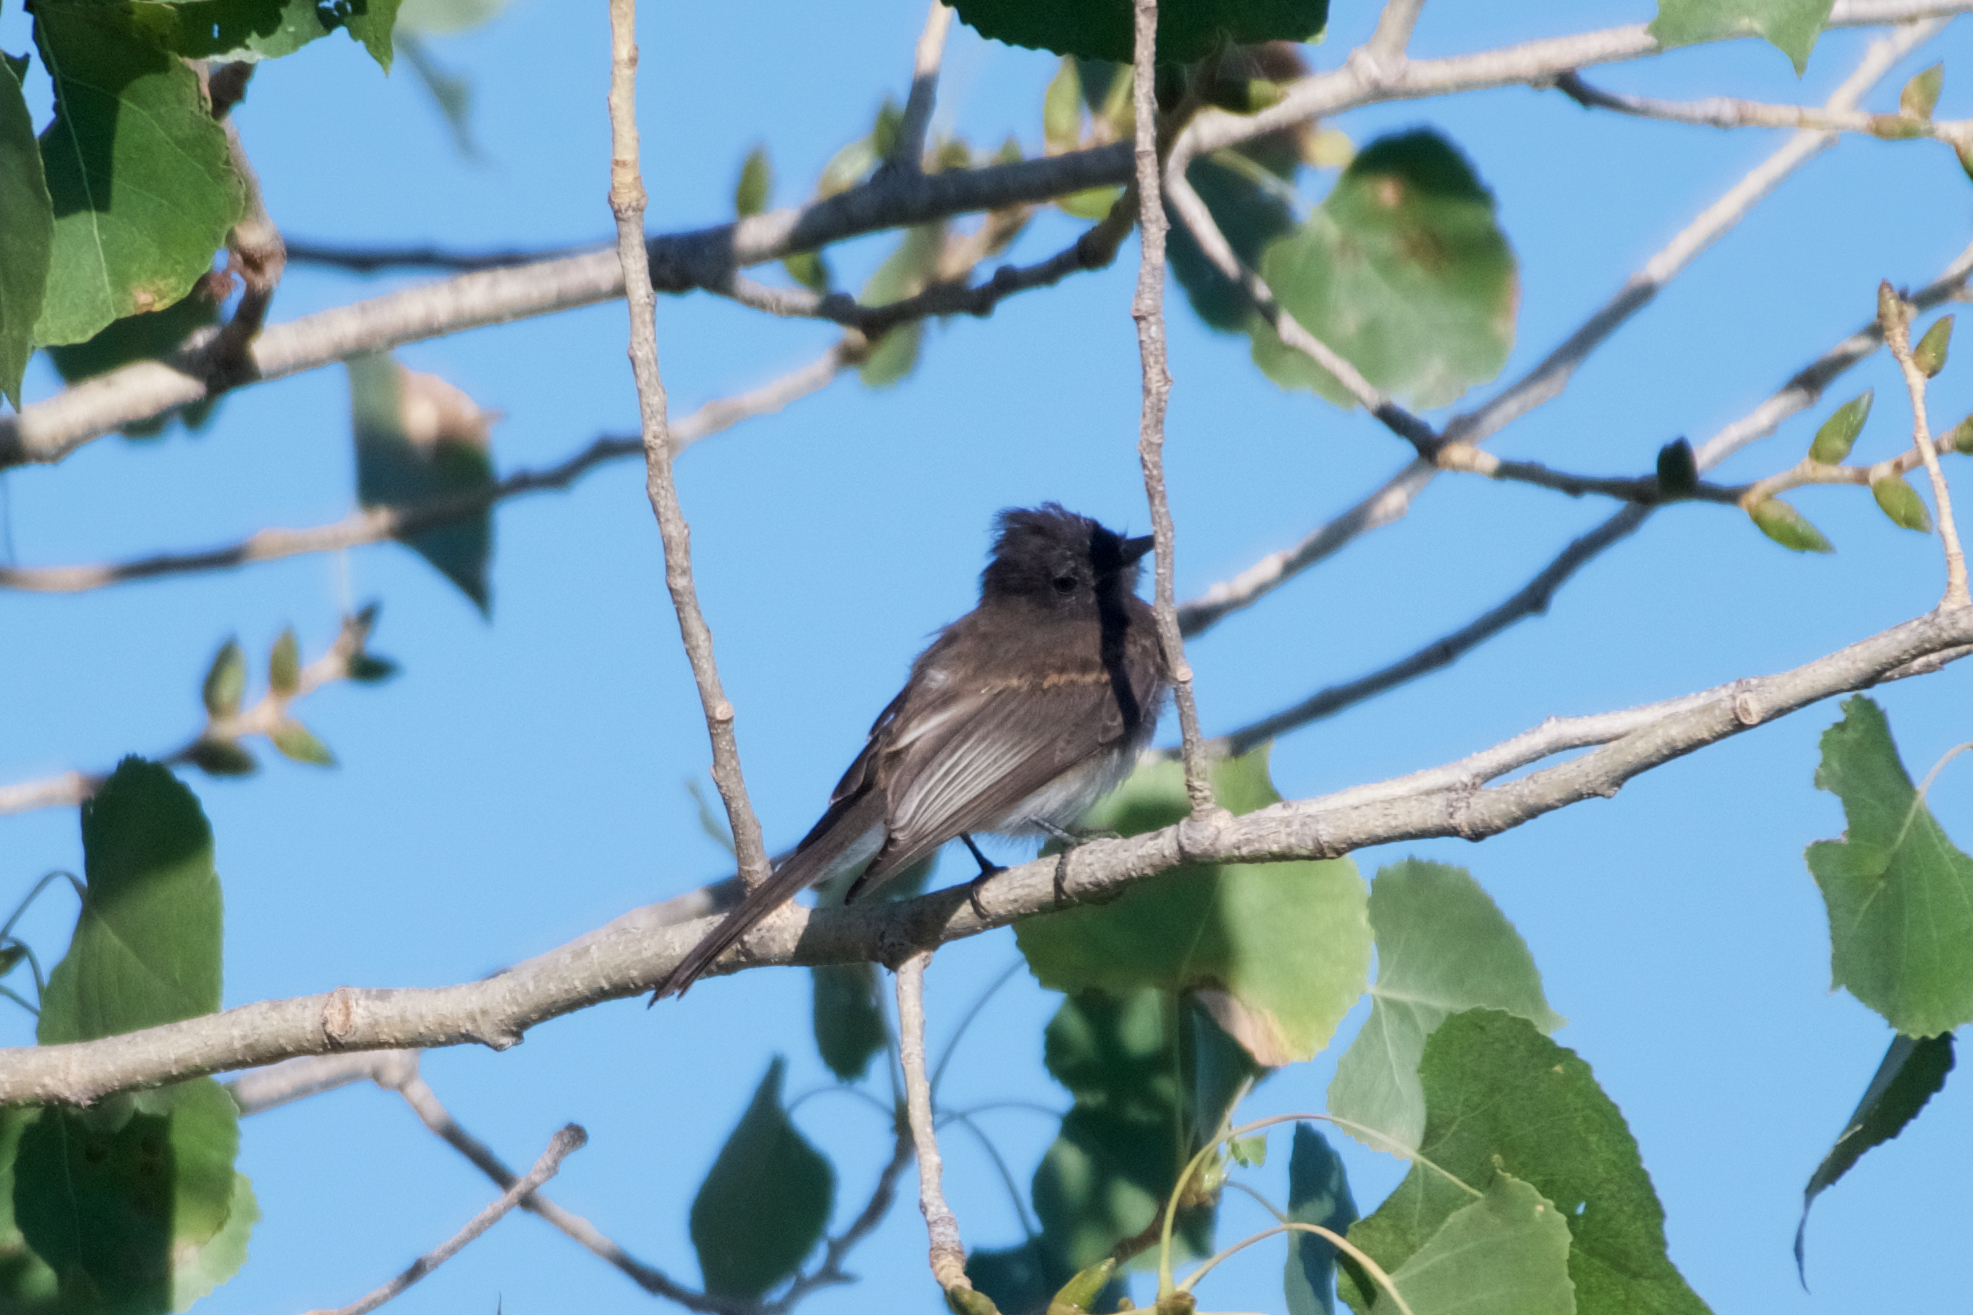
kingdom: Animalia
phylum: Chordata
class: Aves
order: Passeriformes
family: Tyrannidae
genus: Sayornis
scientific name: Sayornis nigricans
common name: Black phoebe
